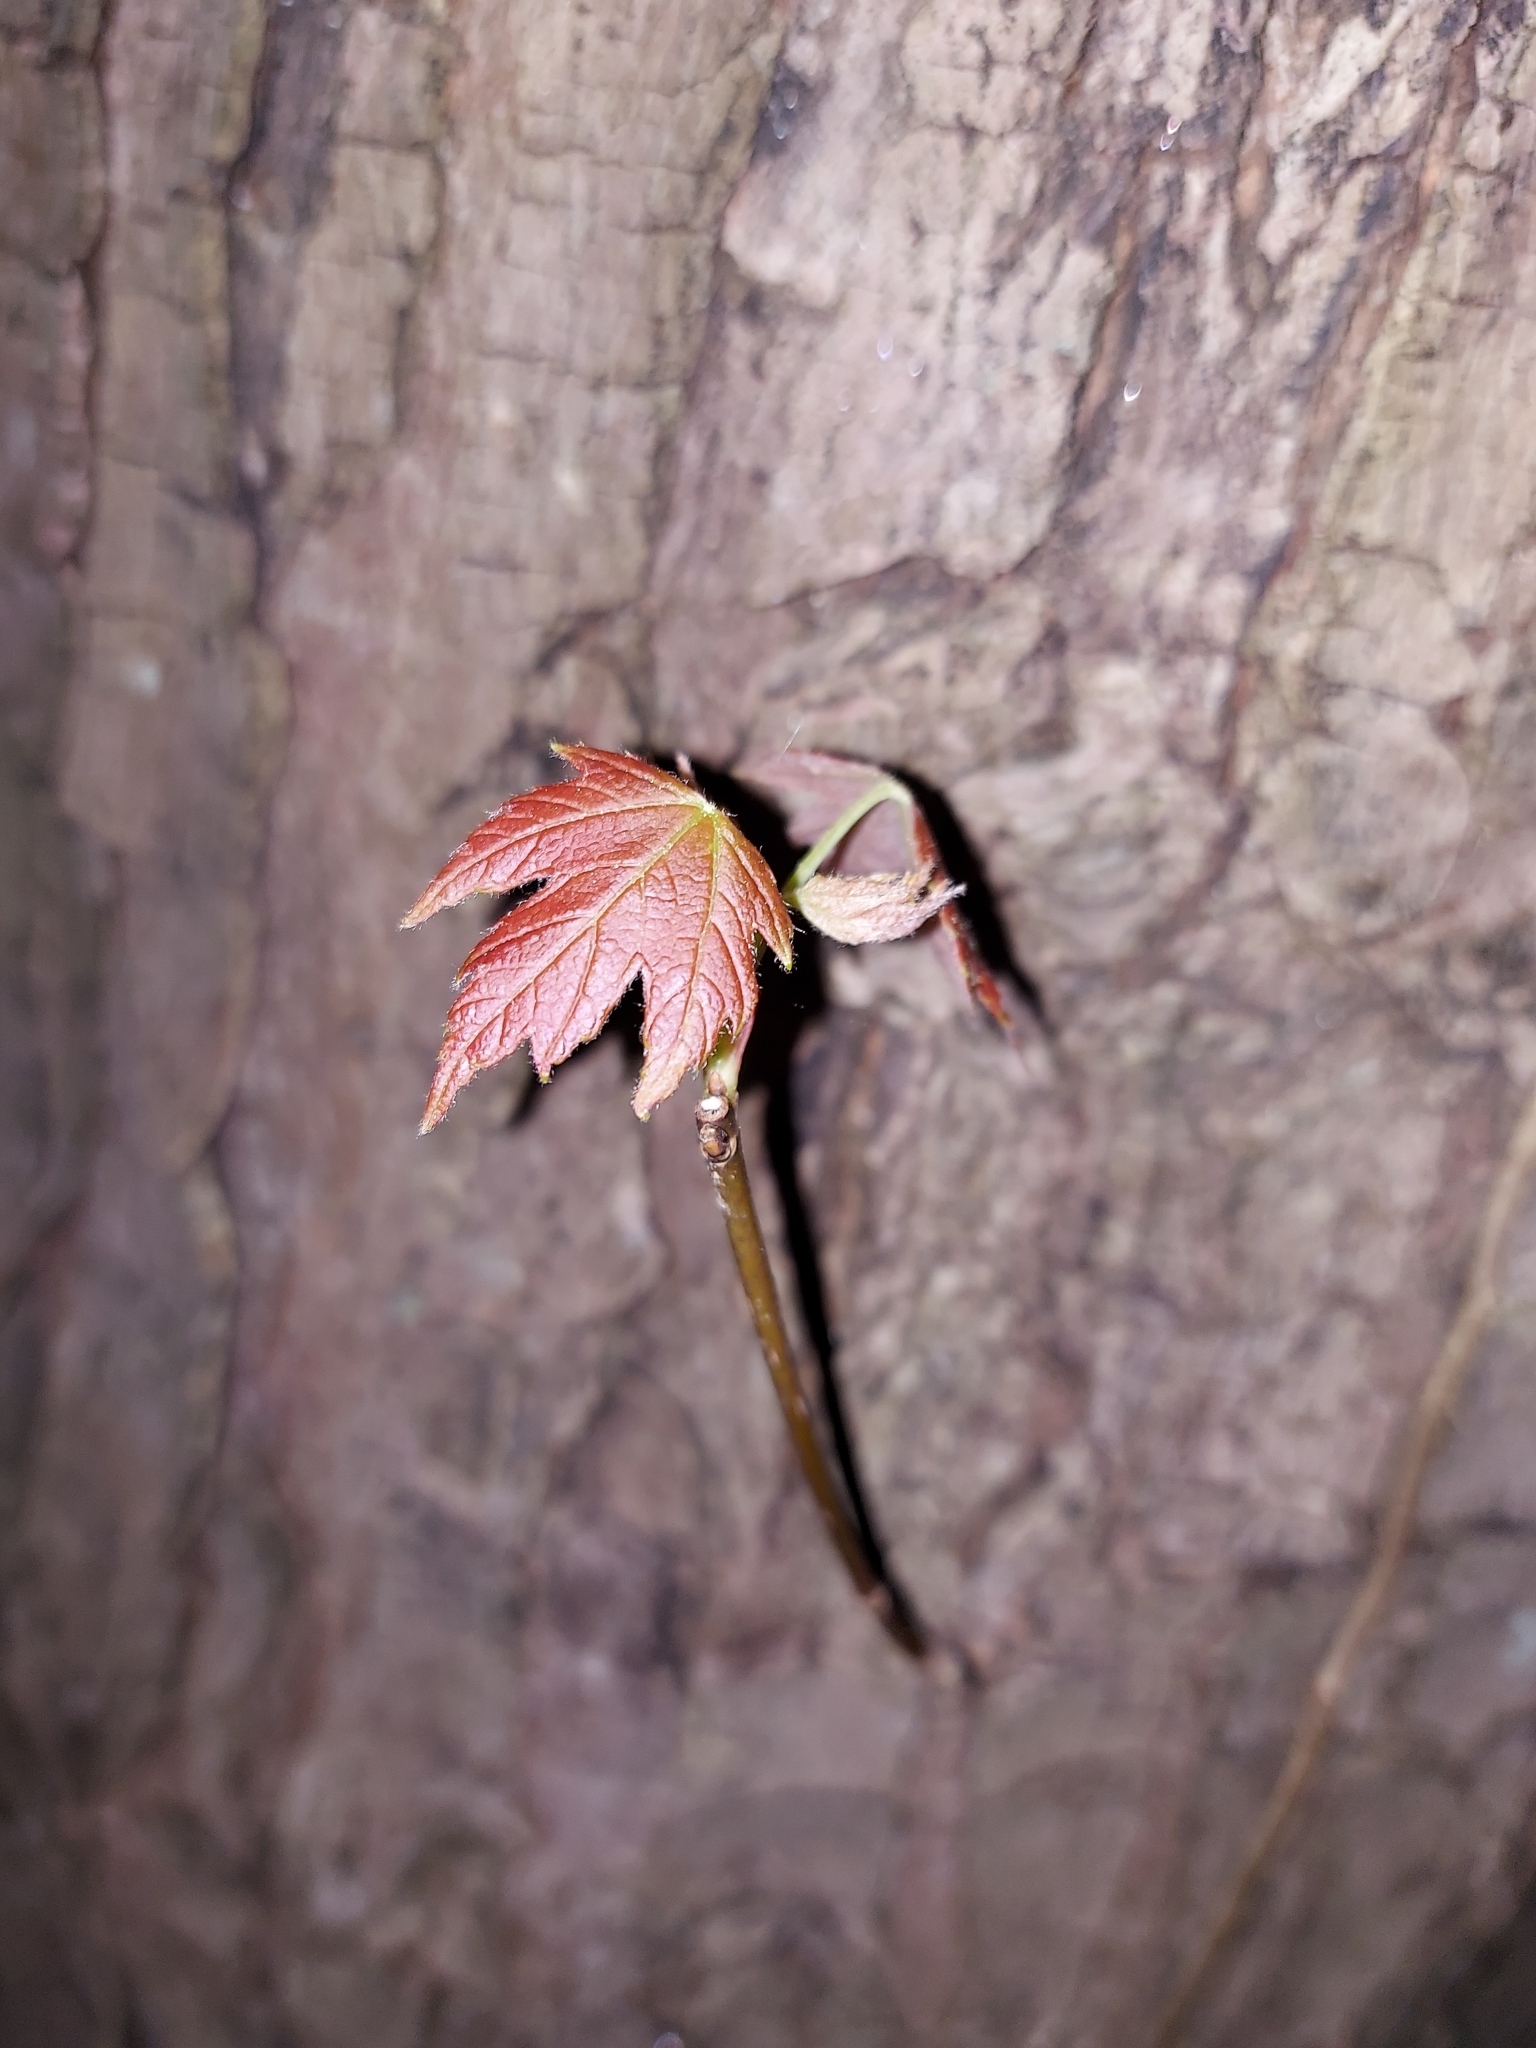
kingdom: Plantae
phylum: Tracheophyta
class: Magnoliopsida
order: Sapindales
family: Sapindaceae
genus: Acer
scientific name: Acer saccharinum
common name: Silver maple
